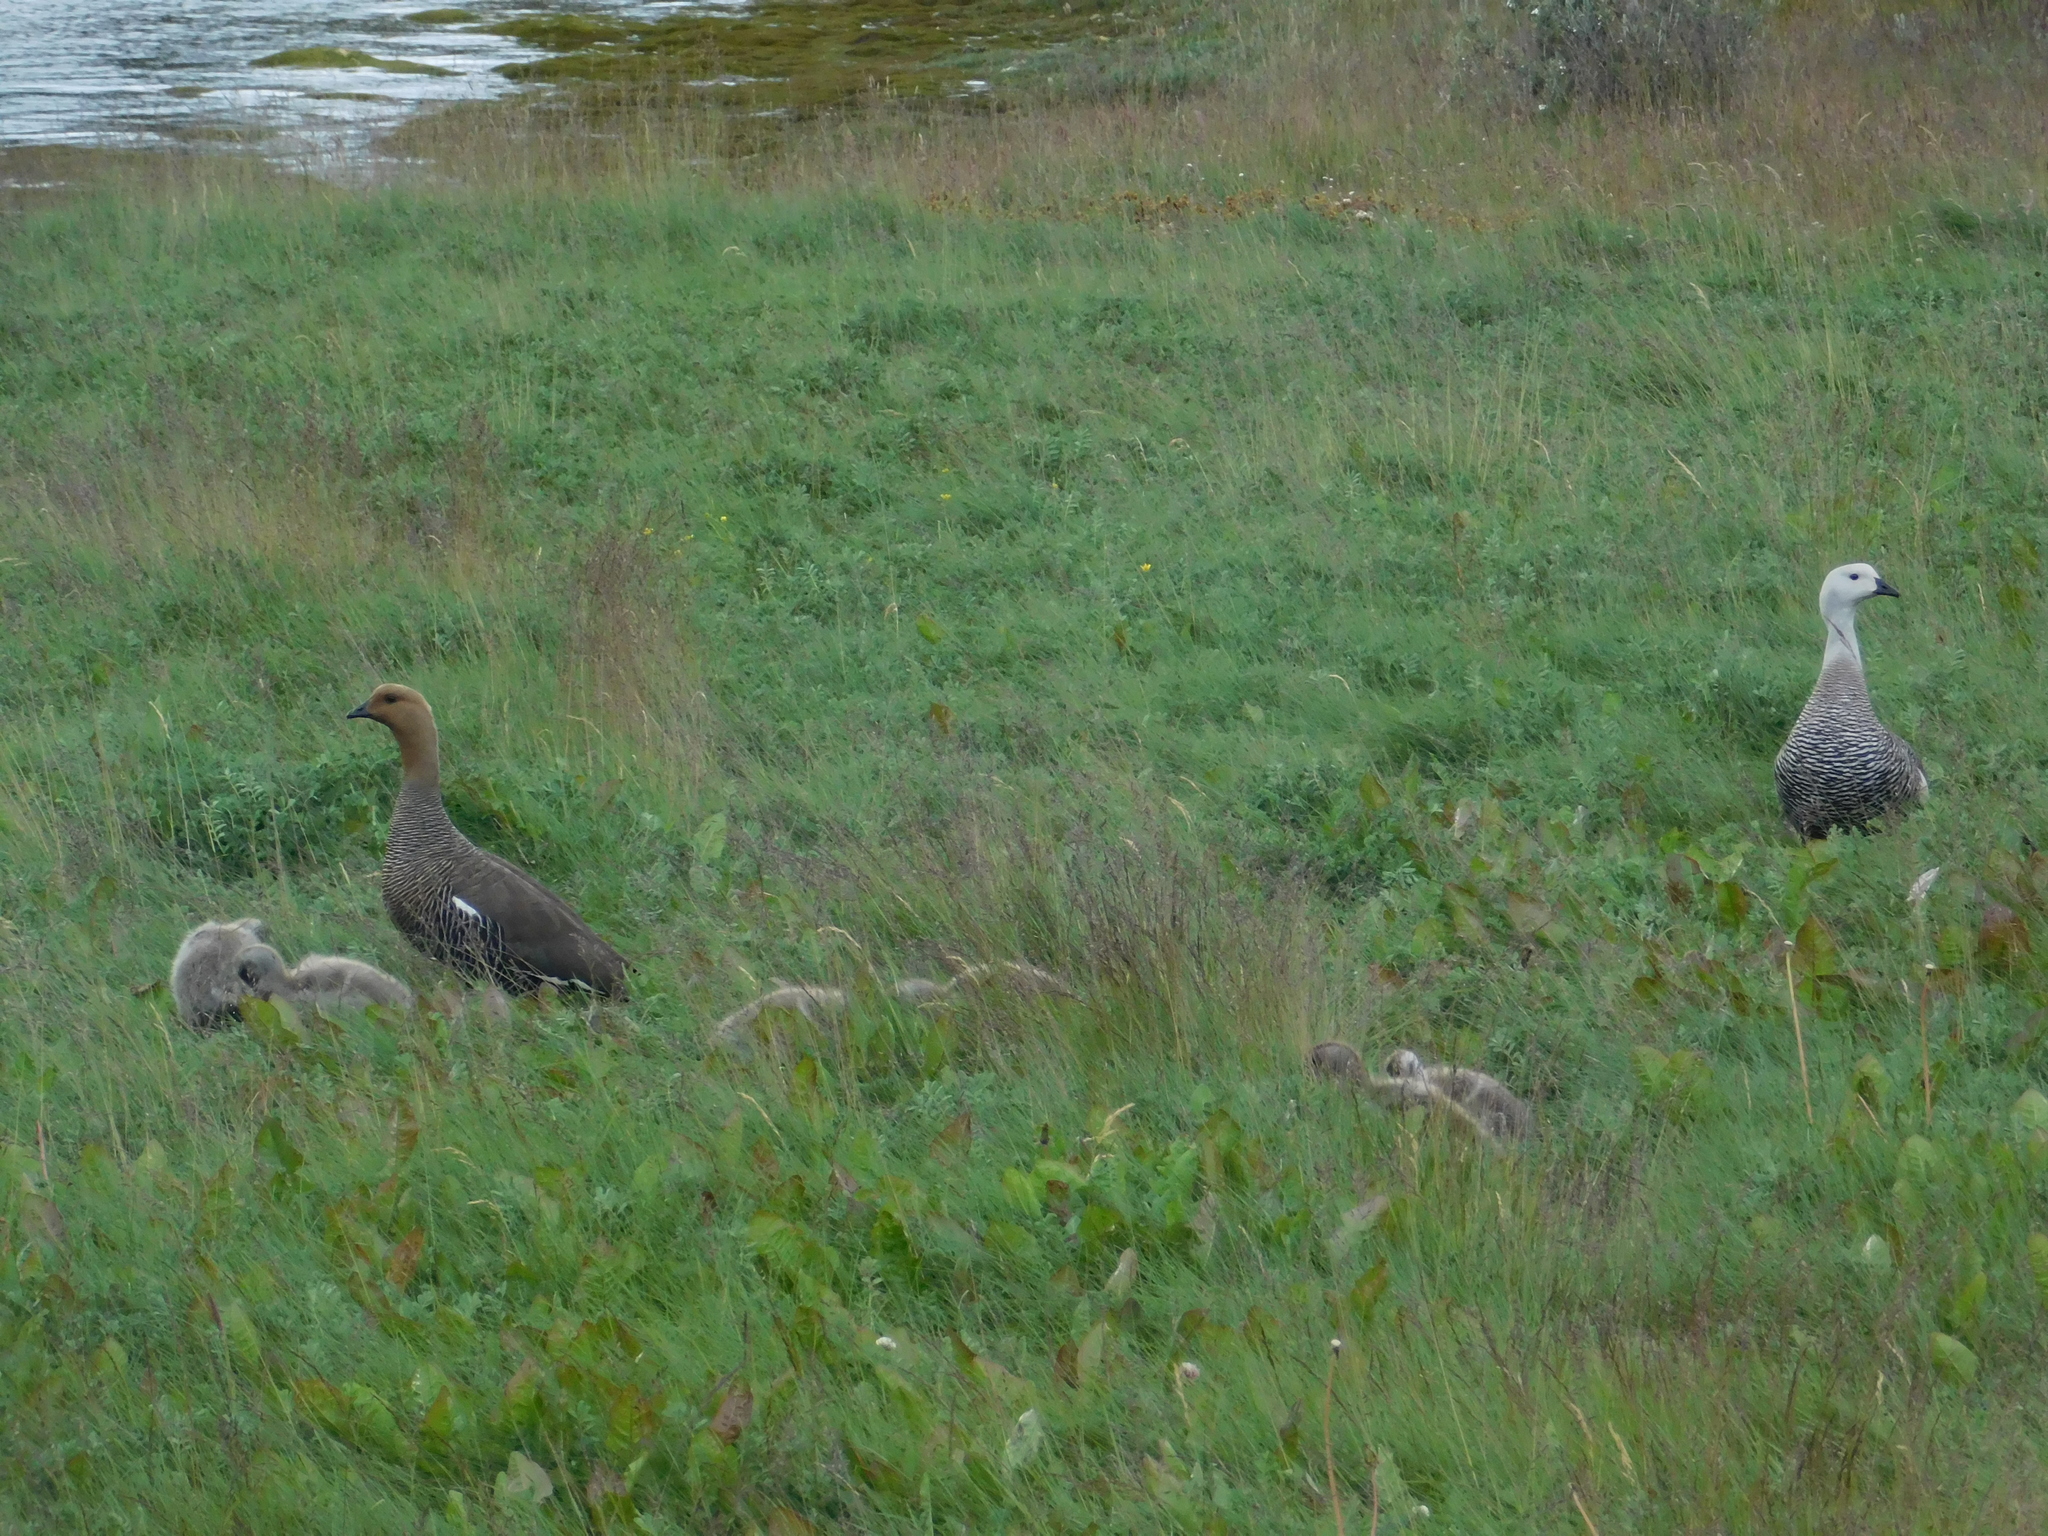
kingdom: Animalia
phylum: Chordata
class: Aves
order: Anseriformes
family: Anatidae
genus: Chloephaga
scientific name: Chloephaga picta
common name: Upland goose
